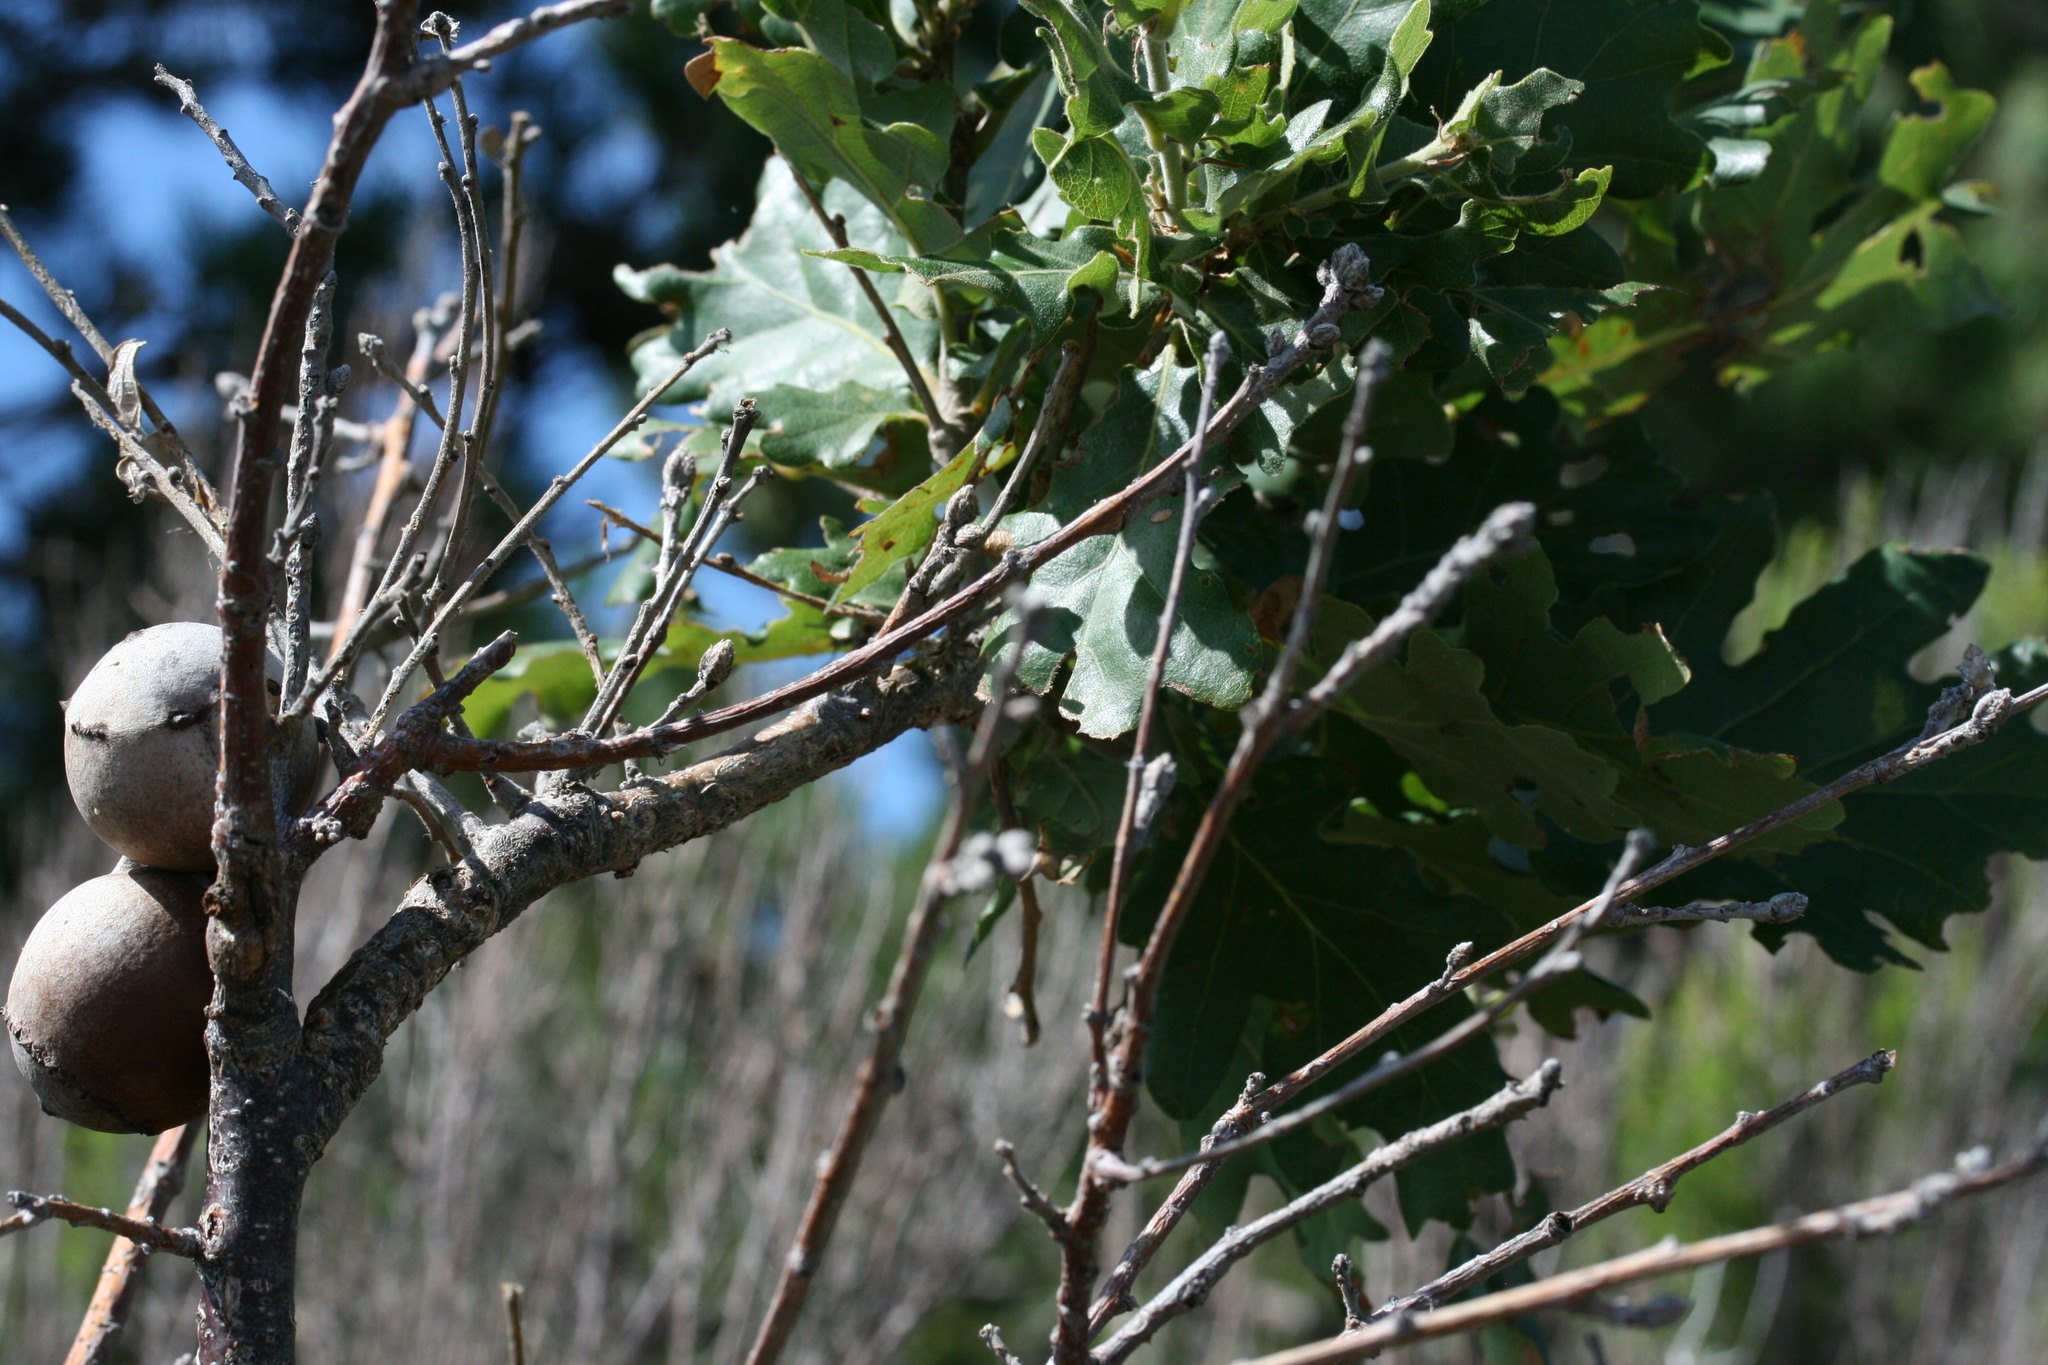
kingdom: Animalia
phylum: Arthropoda
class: Insecta
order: Hymenoptera
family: Cynipidae
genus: Andricus
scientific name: Andricus quercustozae
